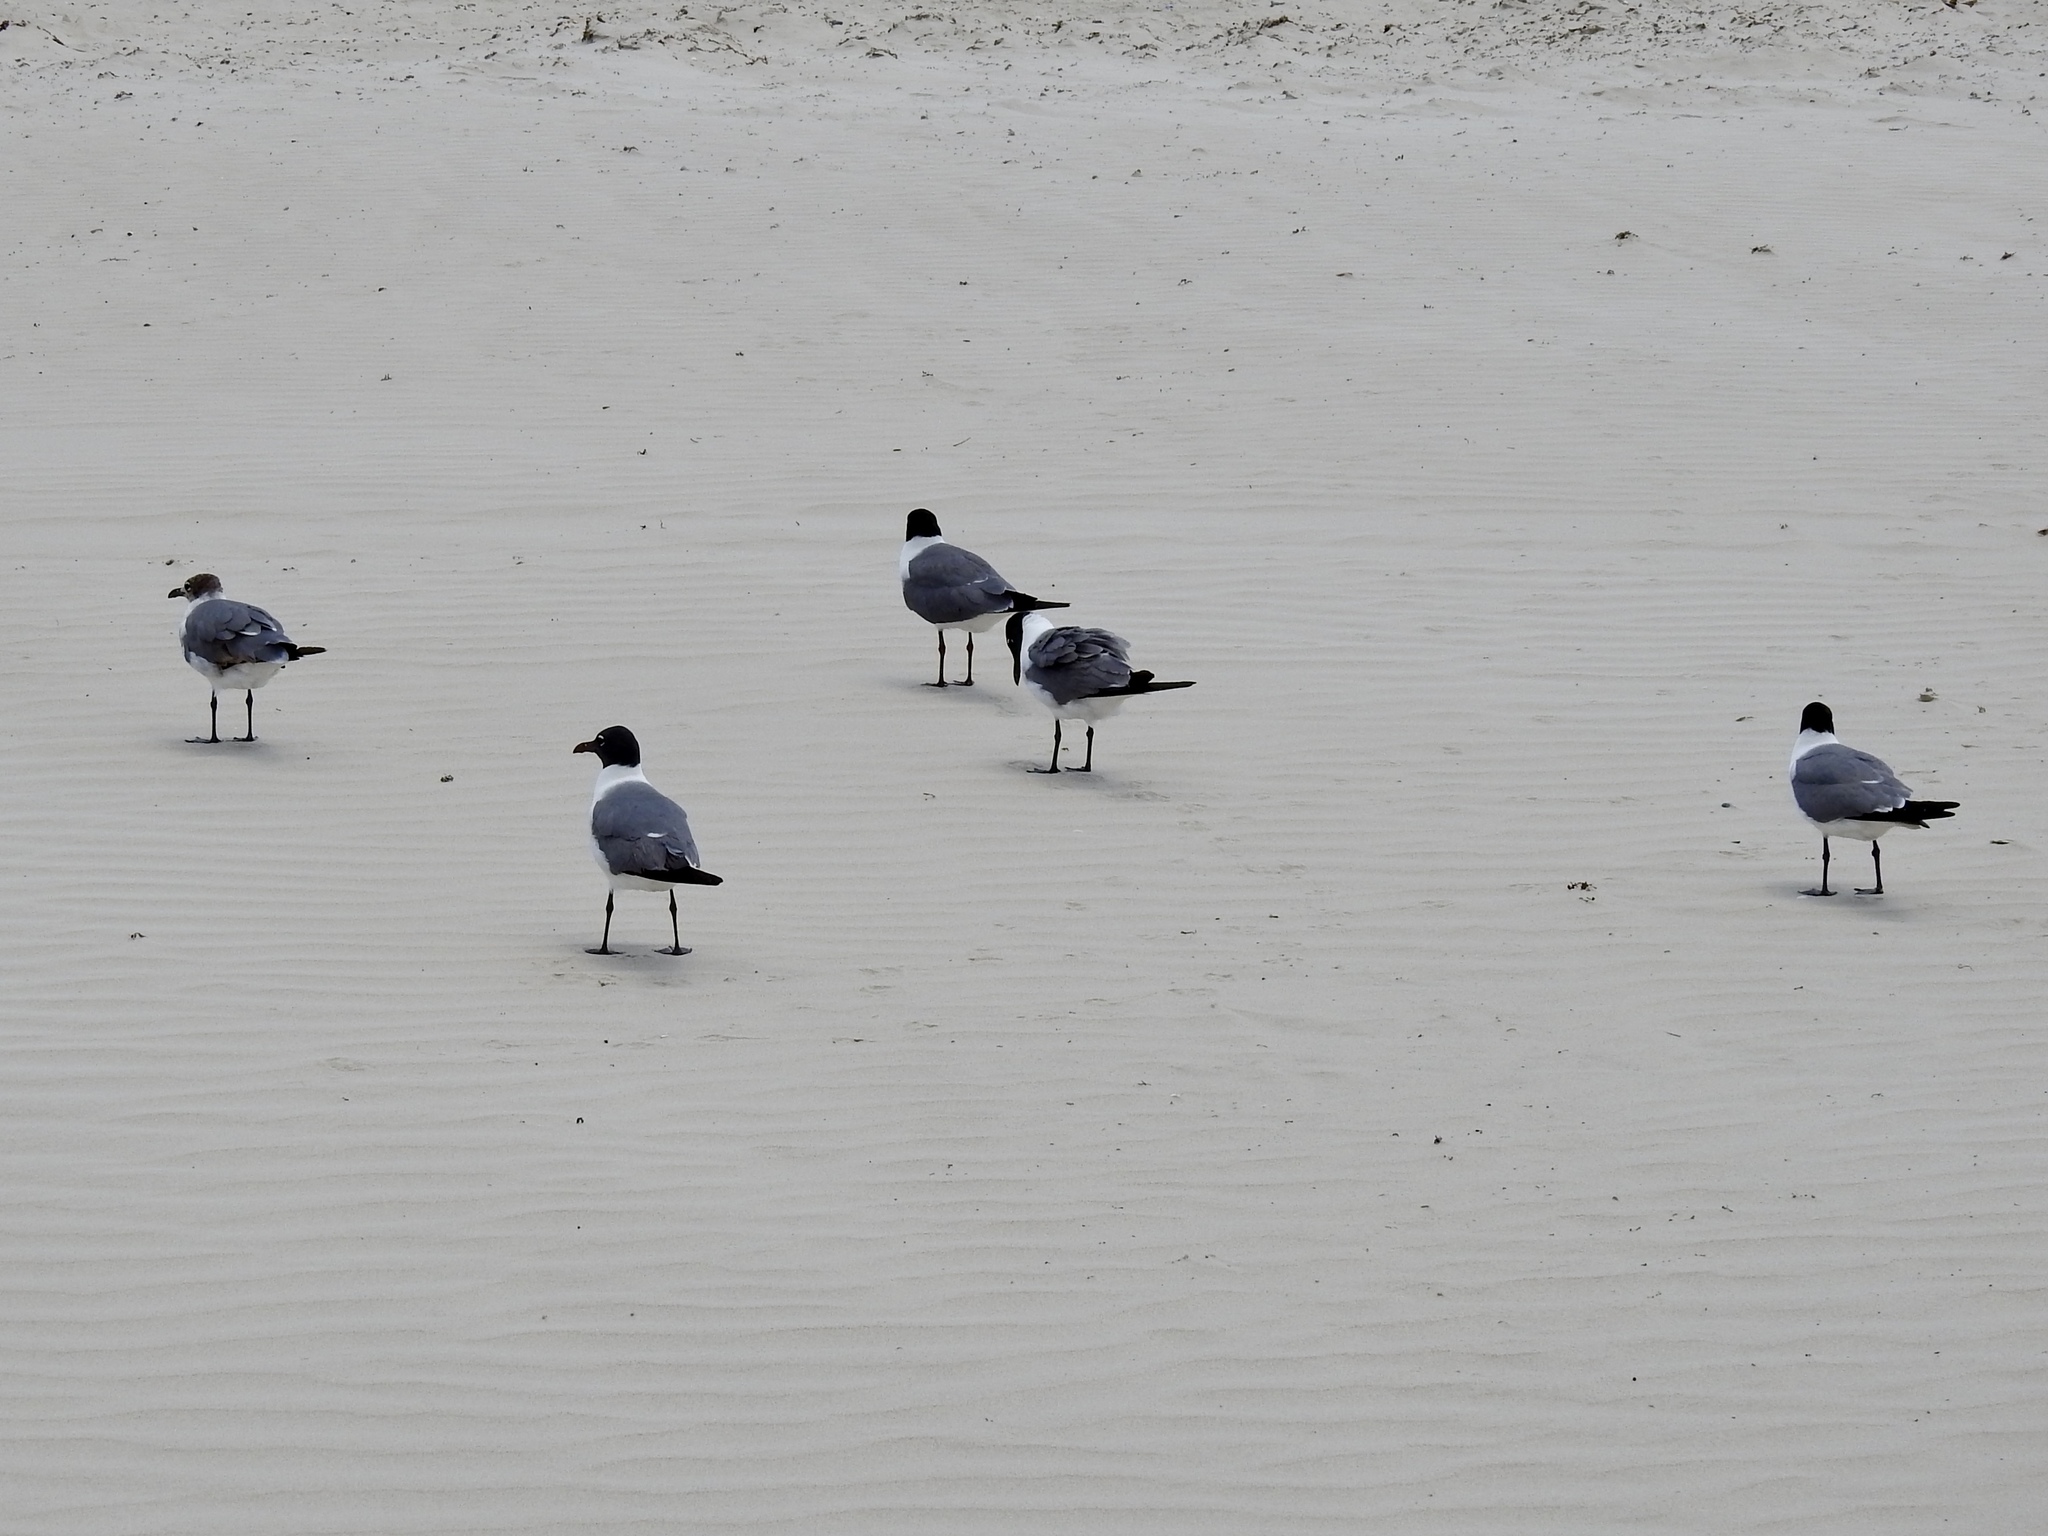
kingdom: Animalia
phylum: Chordata
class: Aves
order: Charadriiformes
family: Laridae
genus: Leucophaeus
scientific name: Leucophaeus atricilla
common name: Laughing gull
